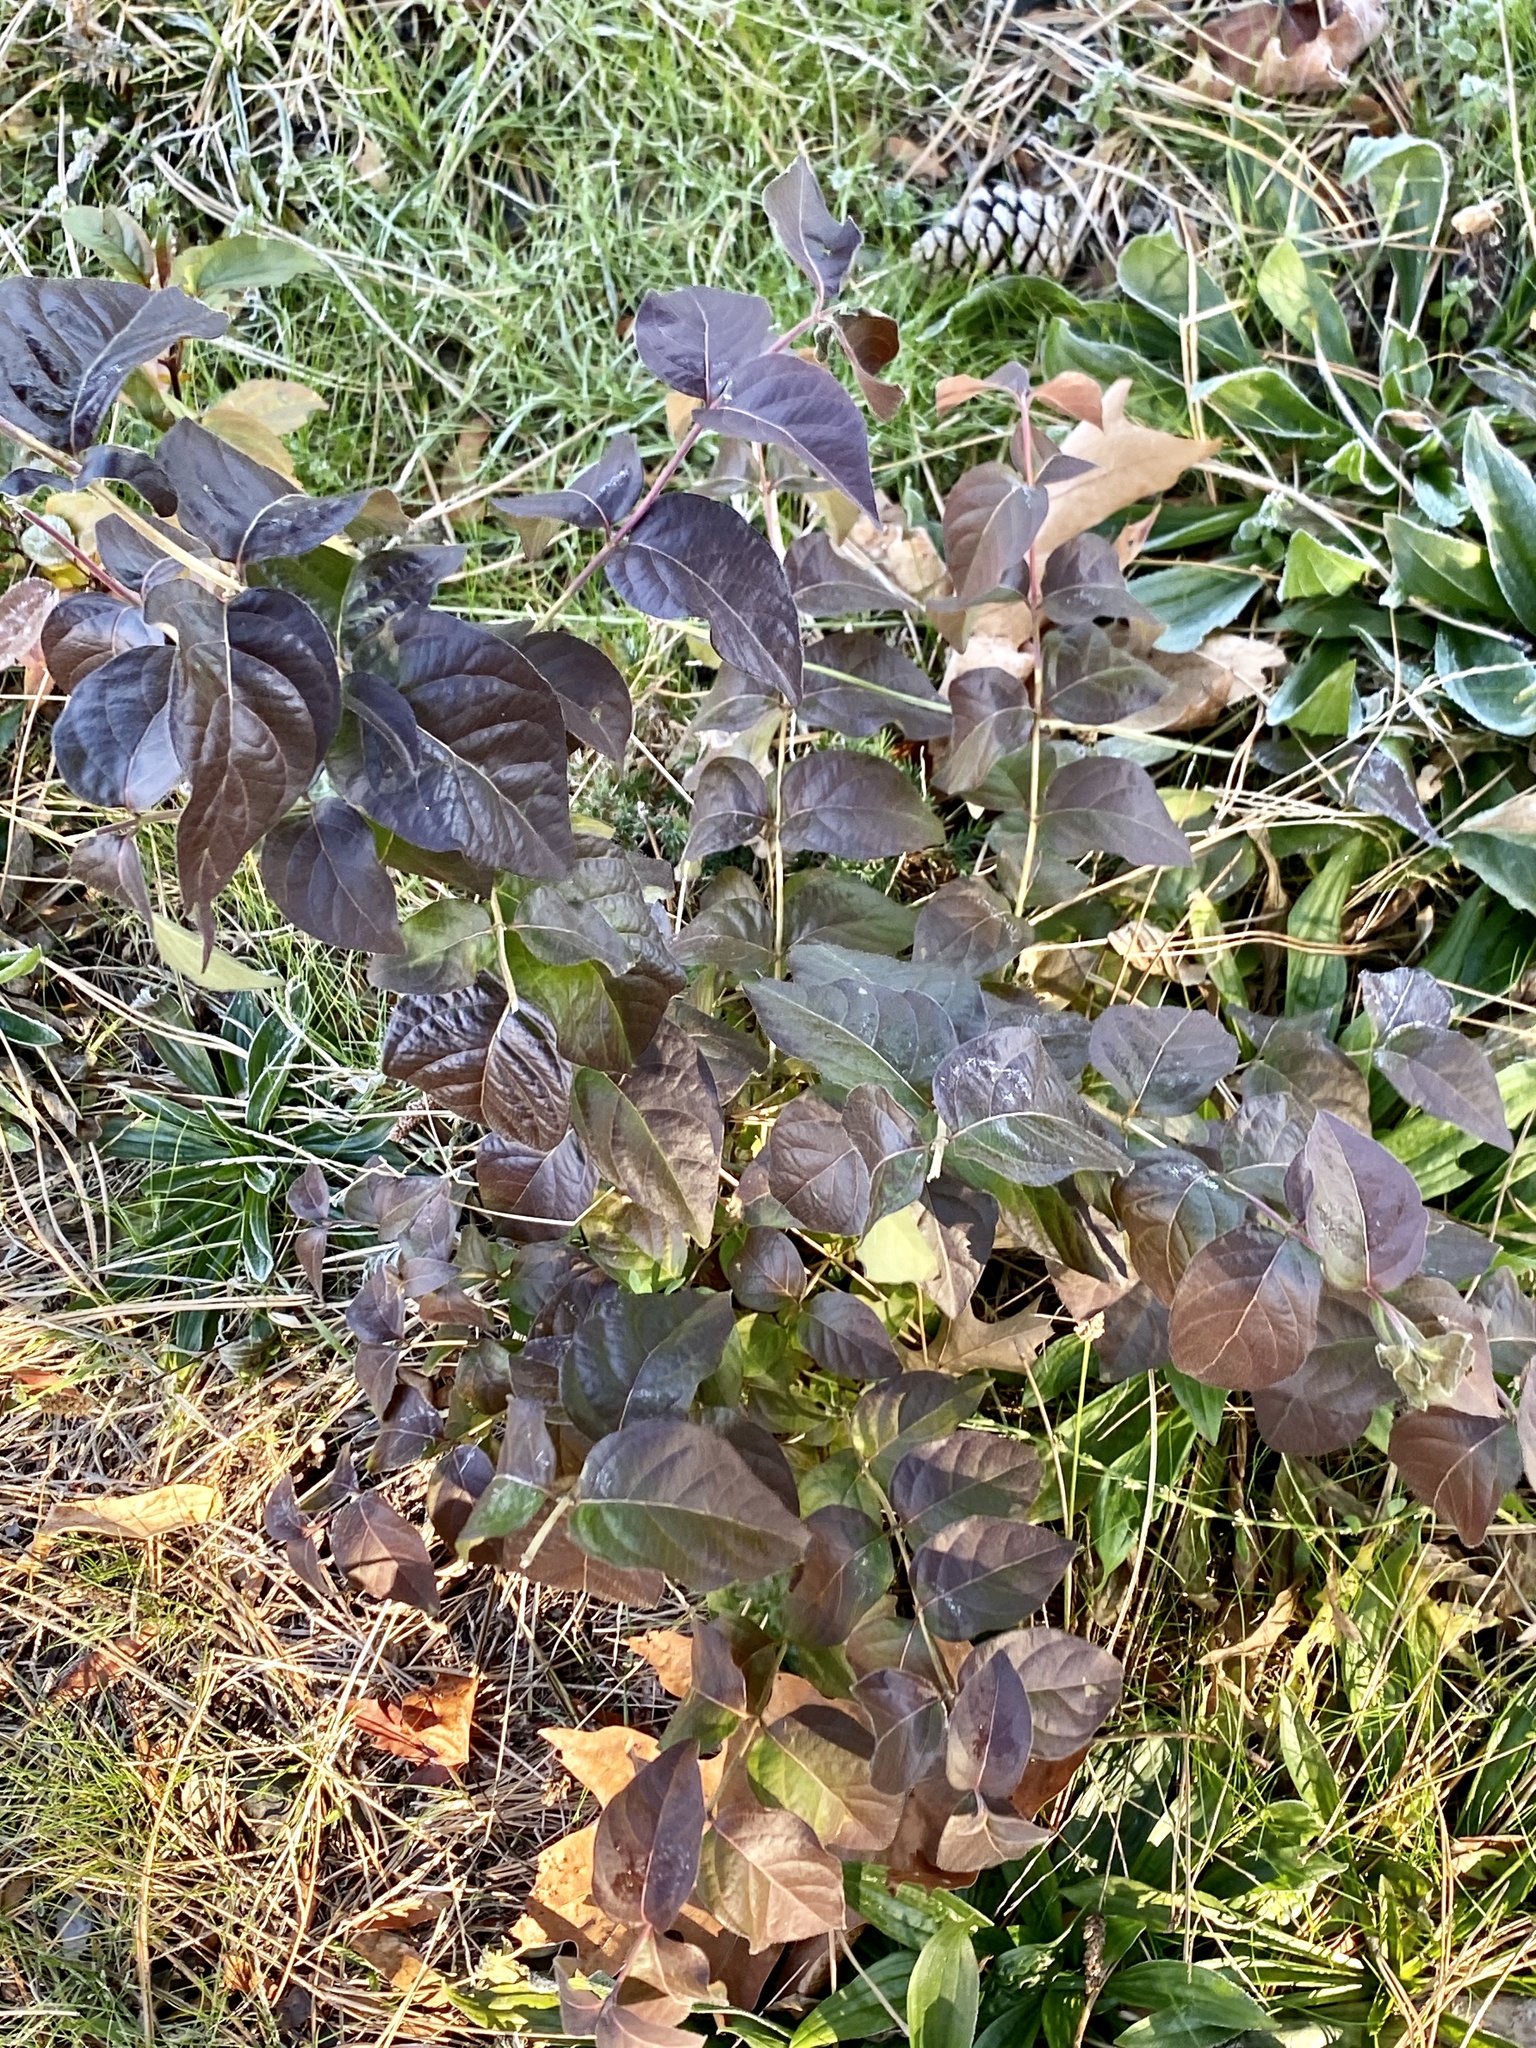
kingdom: Plantae
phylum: Tracheophyta
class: Magnoliopsida
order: Dipsacales
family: Caprifoliaceae
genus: Lonicera
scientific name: Lonicera maackii
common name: Amur honeysuckle
